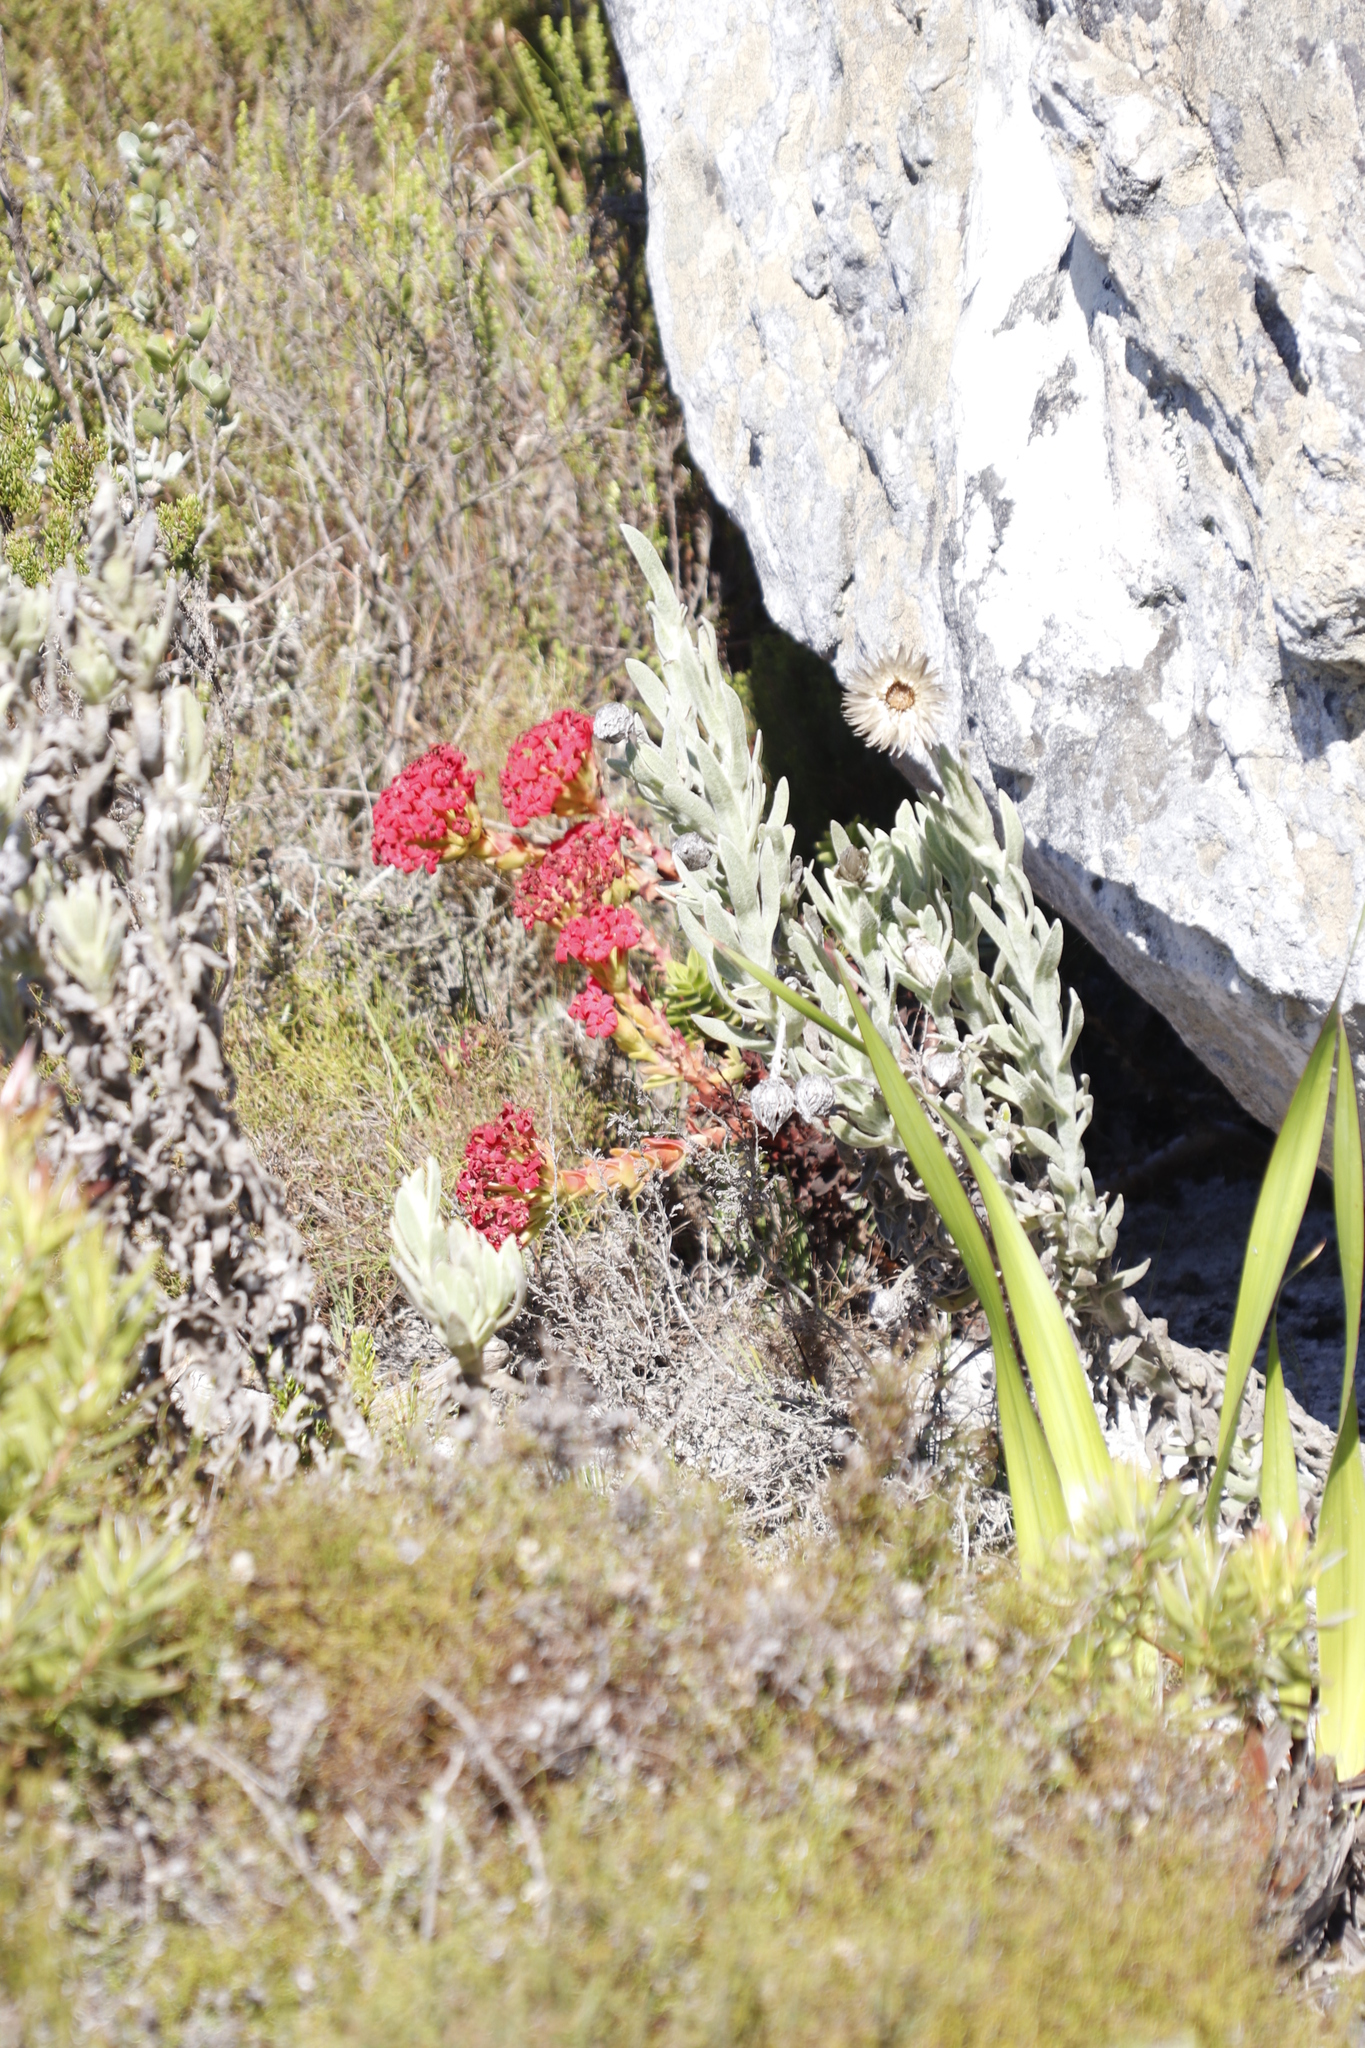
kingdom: Plantae
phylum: Tracheophyta
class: Magnoliopsida
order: Saxifragales
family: Crassulaceae
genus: Crassula
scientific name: Crassula coccinea
